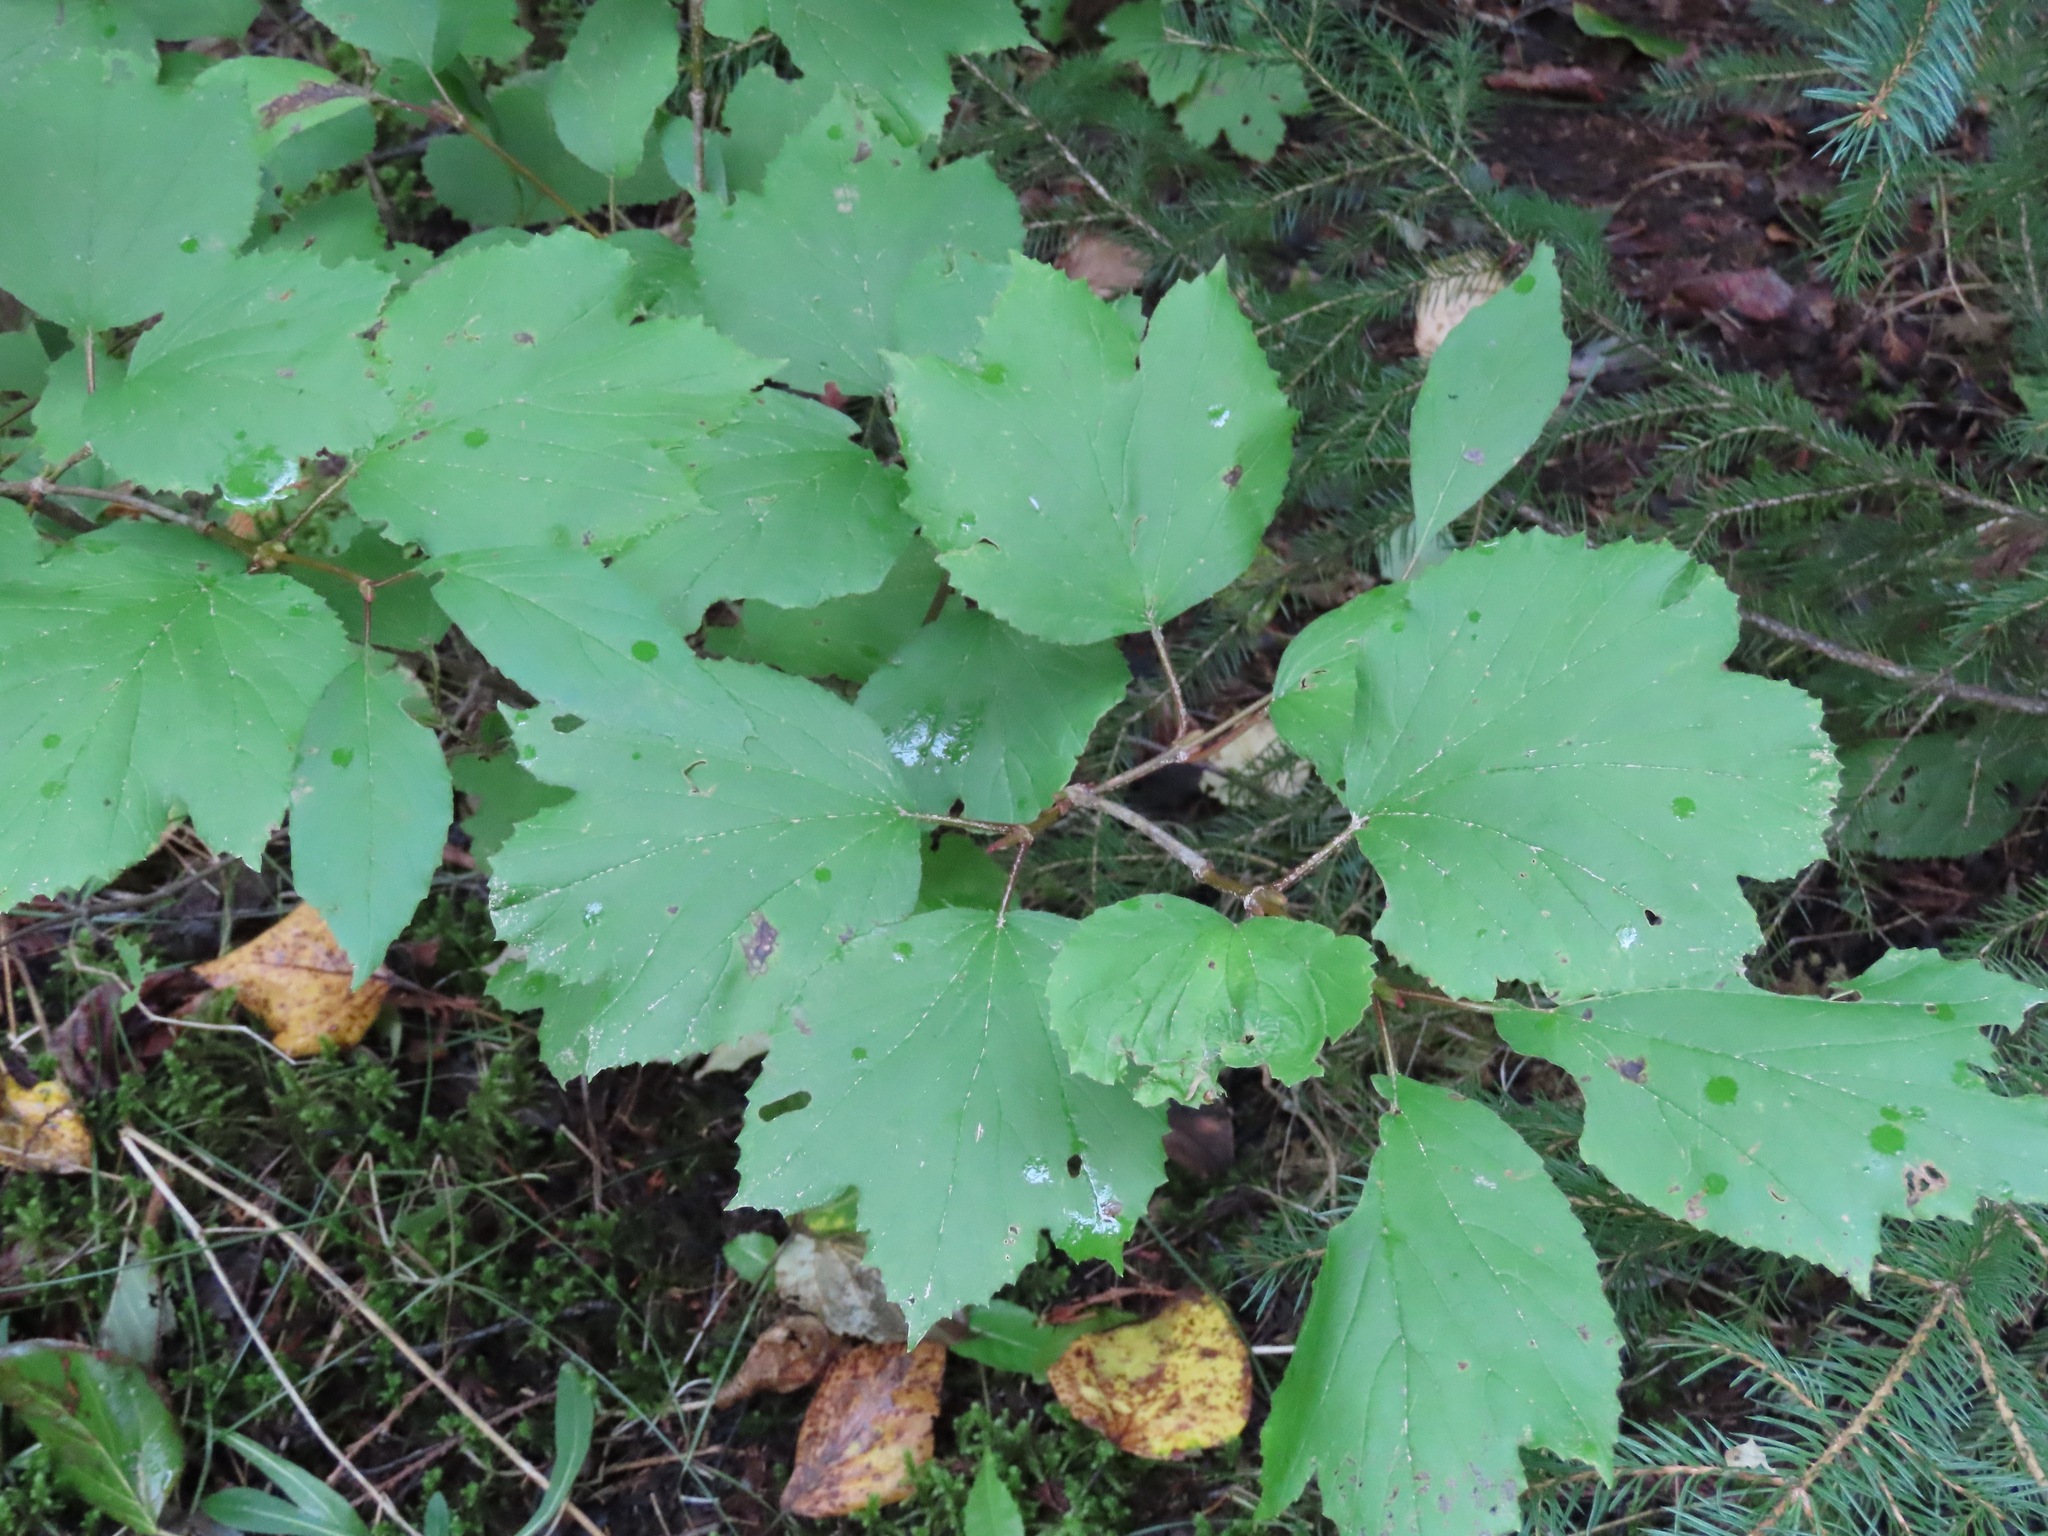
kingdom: Plantae
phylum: Tracheophyta
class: Magnoliopsida
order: Dipsacales
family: Viburnaceae
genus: Viburnum
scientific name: Viburnum edule
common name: Mooseberry
